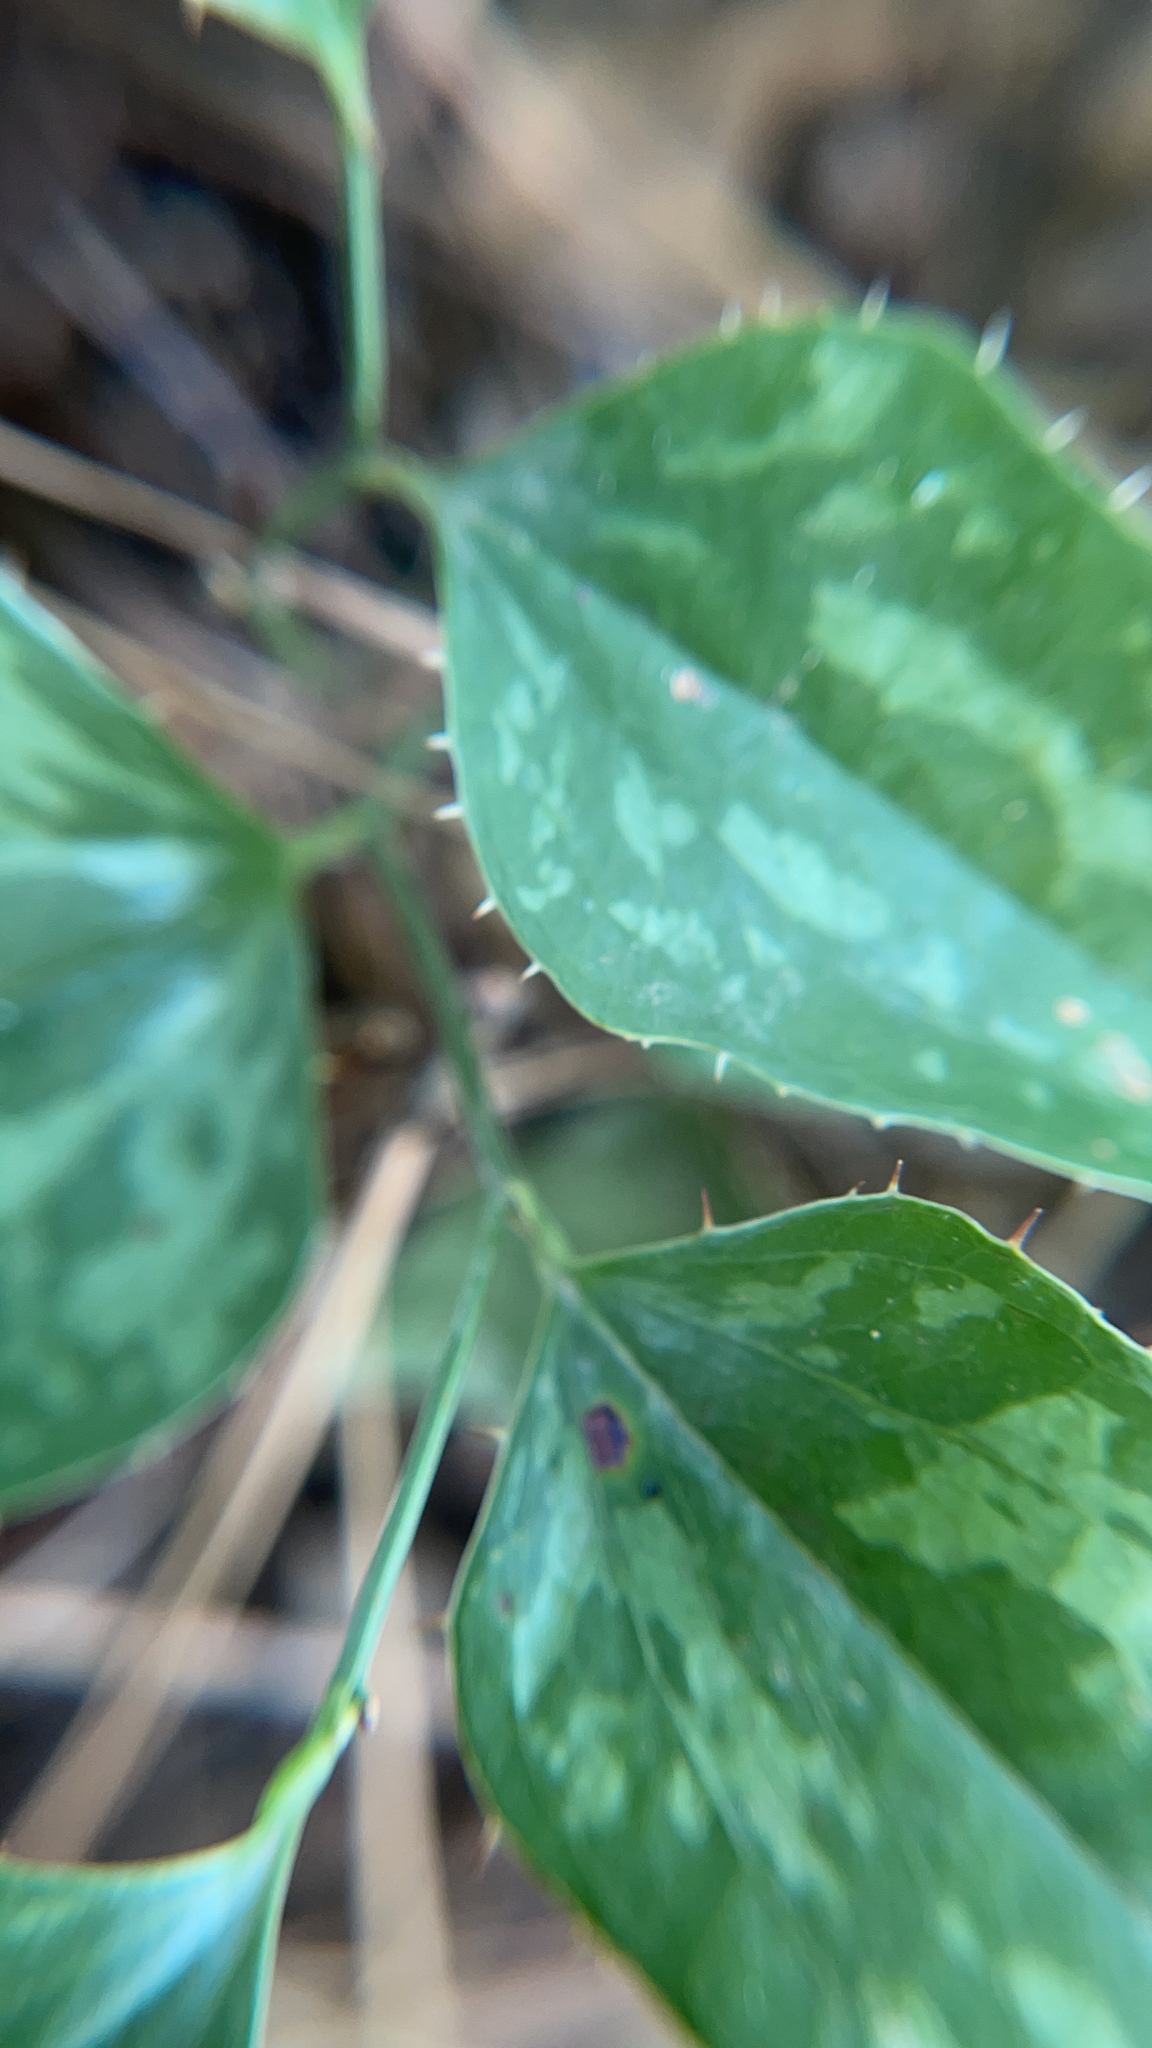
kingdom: Plantae
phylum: Tracheophyta
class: Liliopsida
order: Liliales
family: Smilacaceae
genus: Smilax
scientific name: Smilax bona-nox
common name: Catbrier
